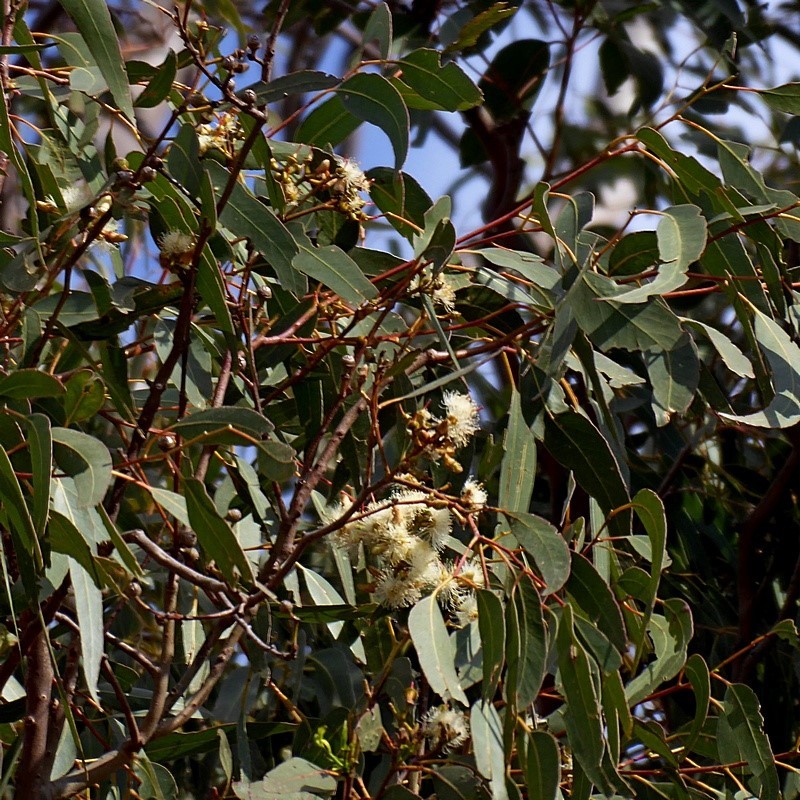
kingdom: Plantae
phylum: Tracheophyta
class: Magnoliopsida
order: Myrtales
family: Myrtaceae
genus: Eucalyptus
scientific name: Eucalyptus tereticornis
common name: Forest redgum
